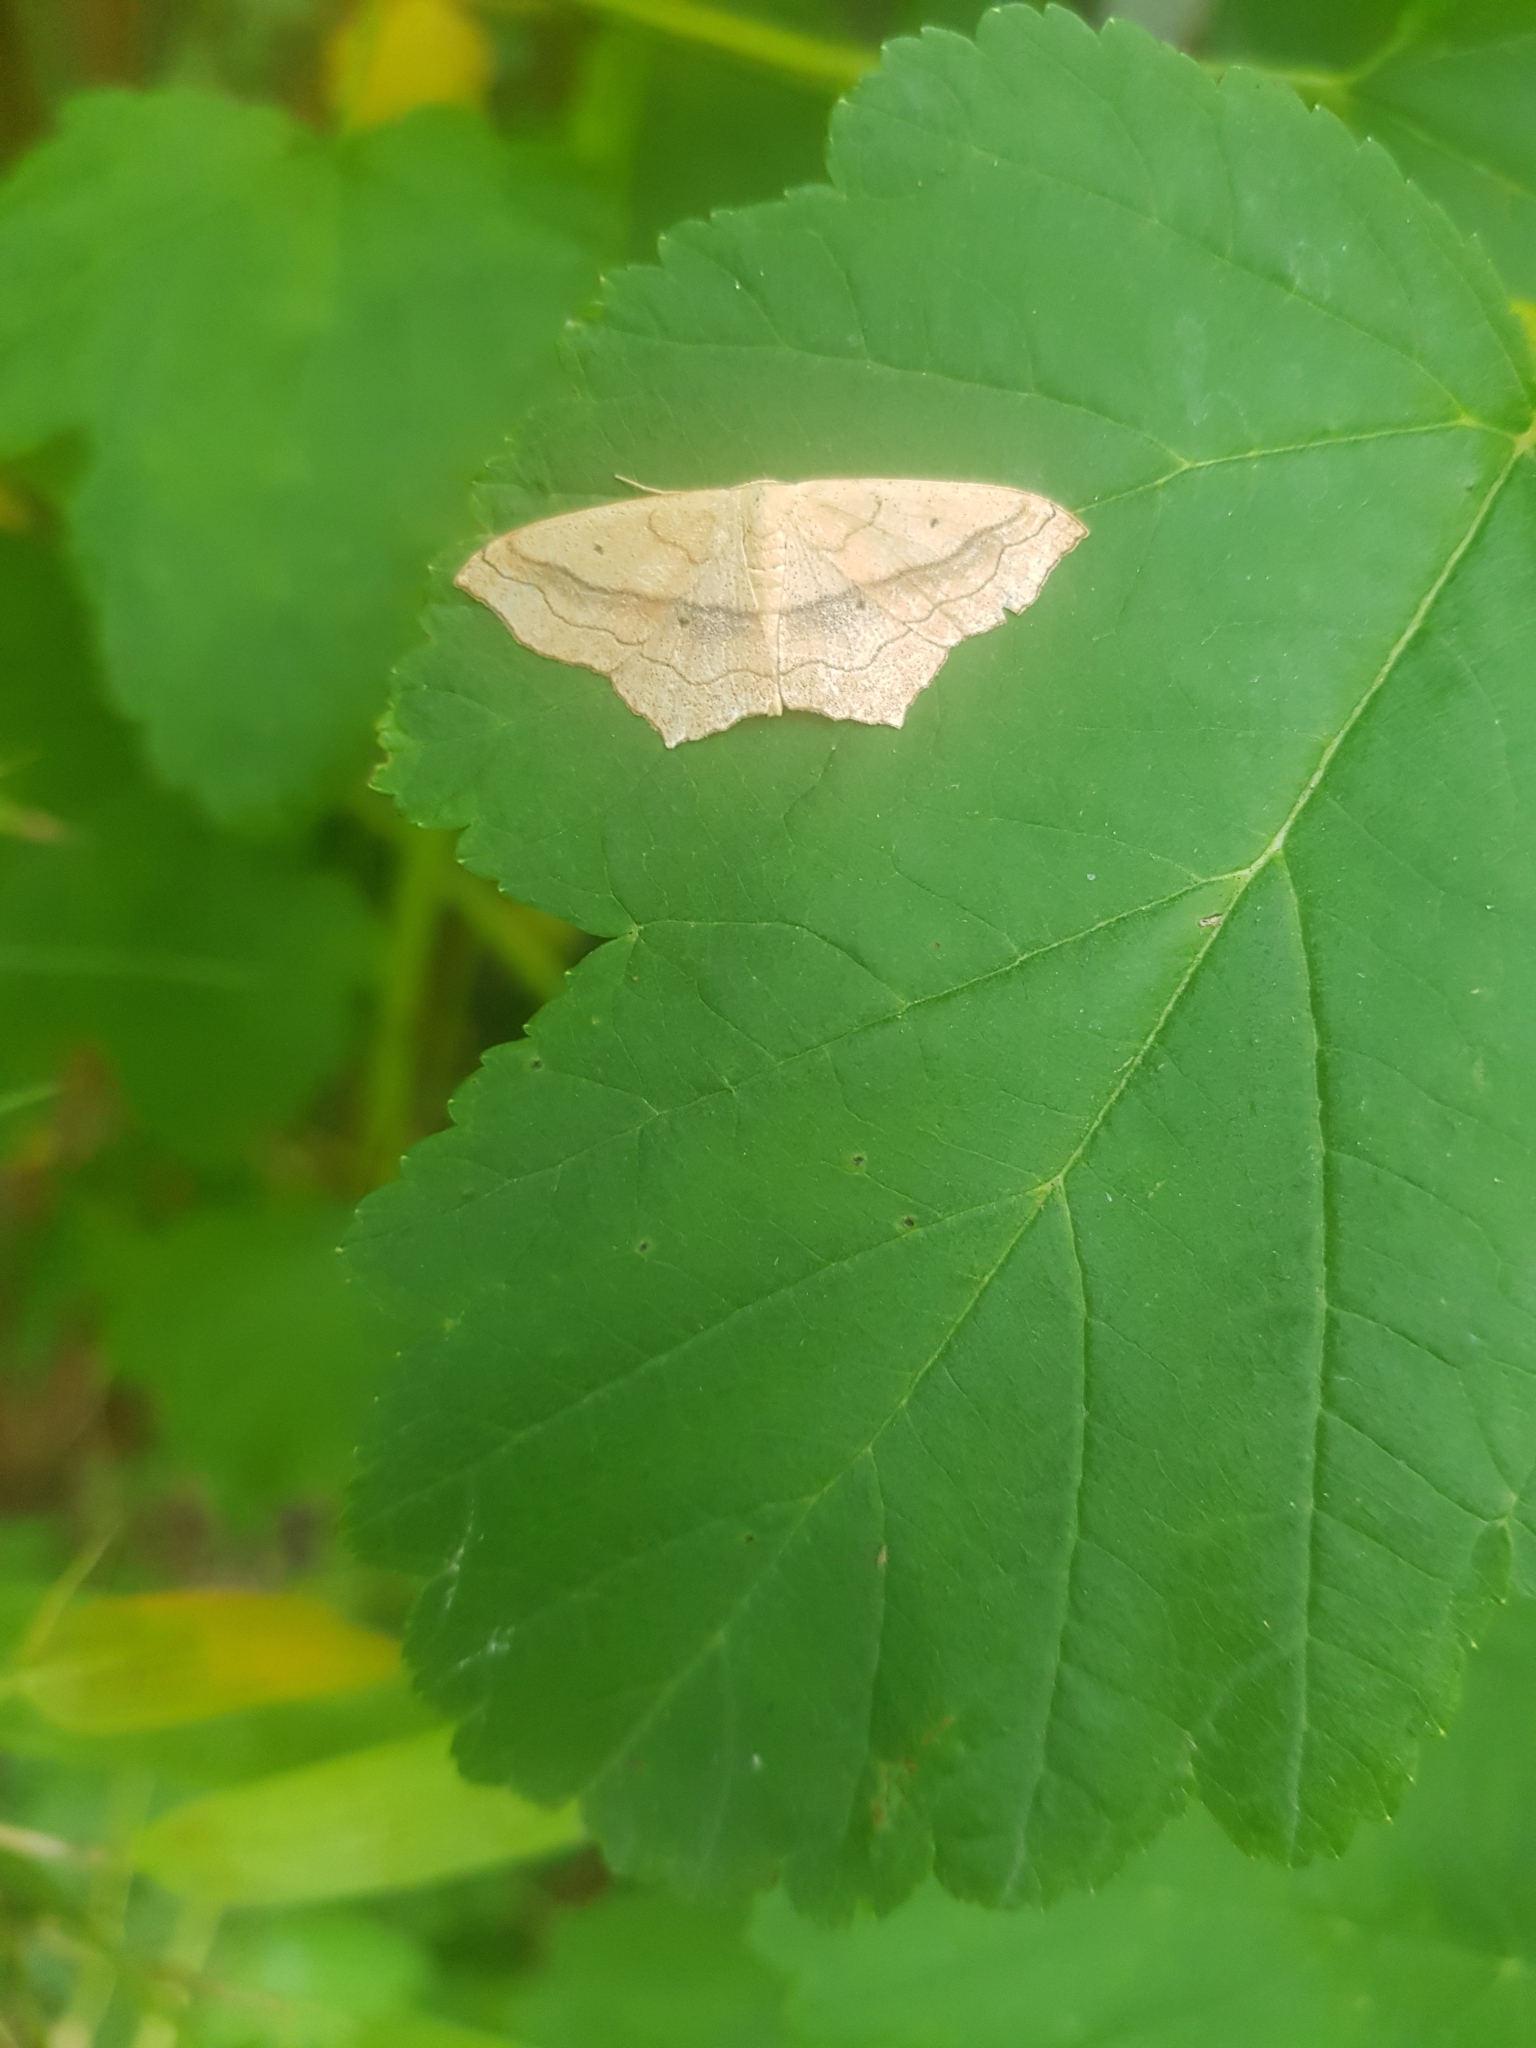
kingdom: Animalia
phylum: Arthropoda
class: Insecta
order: Lepidoptera
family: Geometridae
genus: Scopula
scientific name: Scopula imitaria
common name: Small blood-vein
